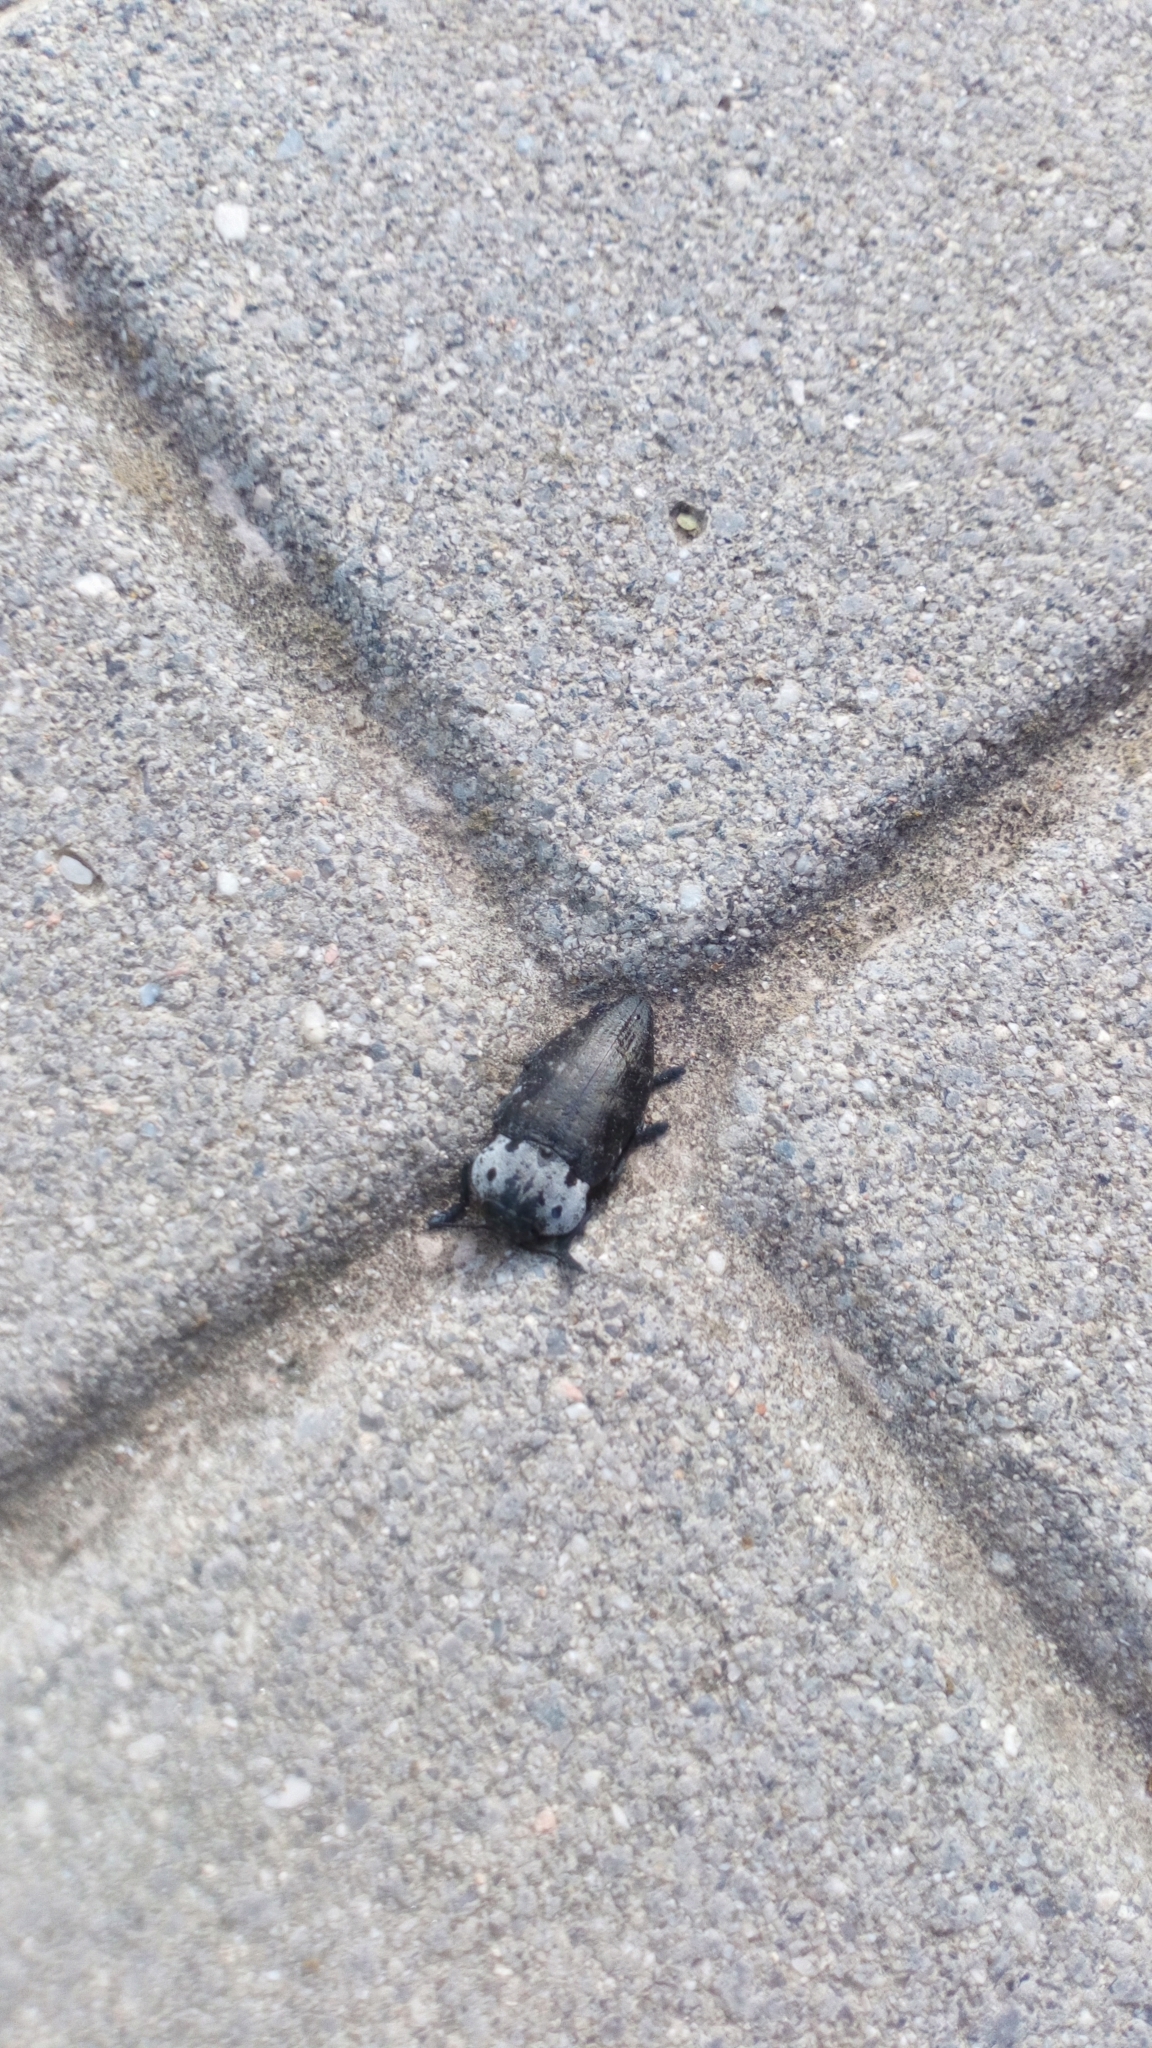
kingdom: Animalia
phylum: Arthropoda
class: Insecta
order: Coleoptera
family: Buprestidae
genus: Capnodis
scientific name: Capnodis tenebrionis
